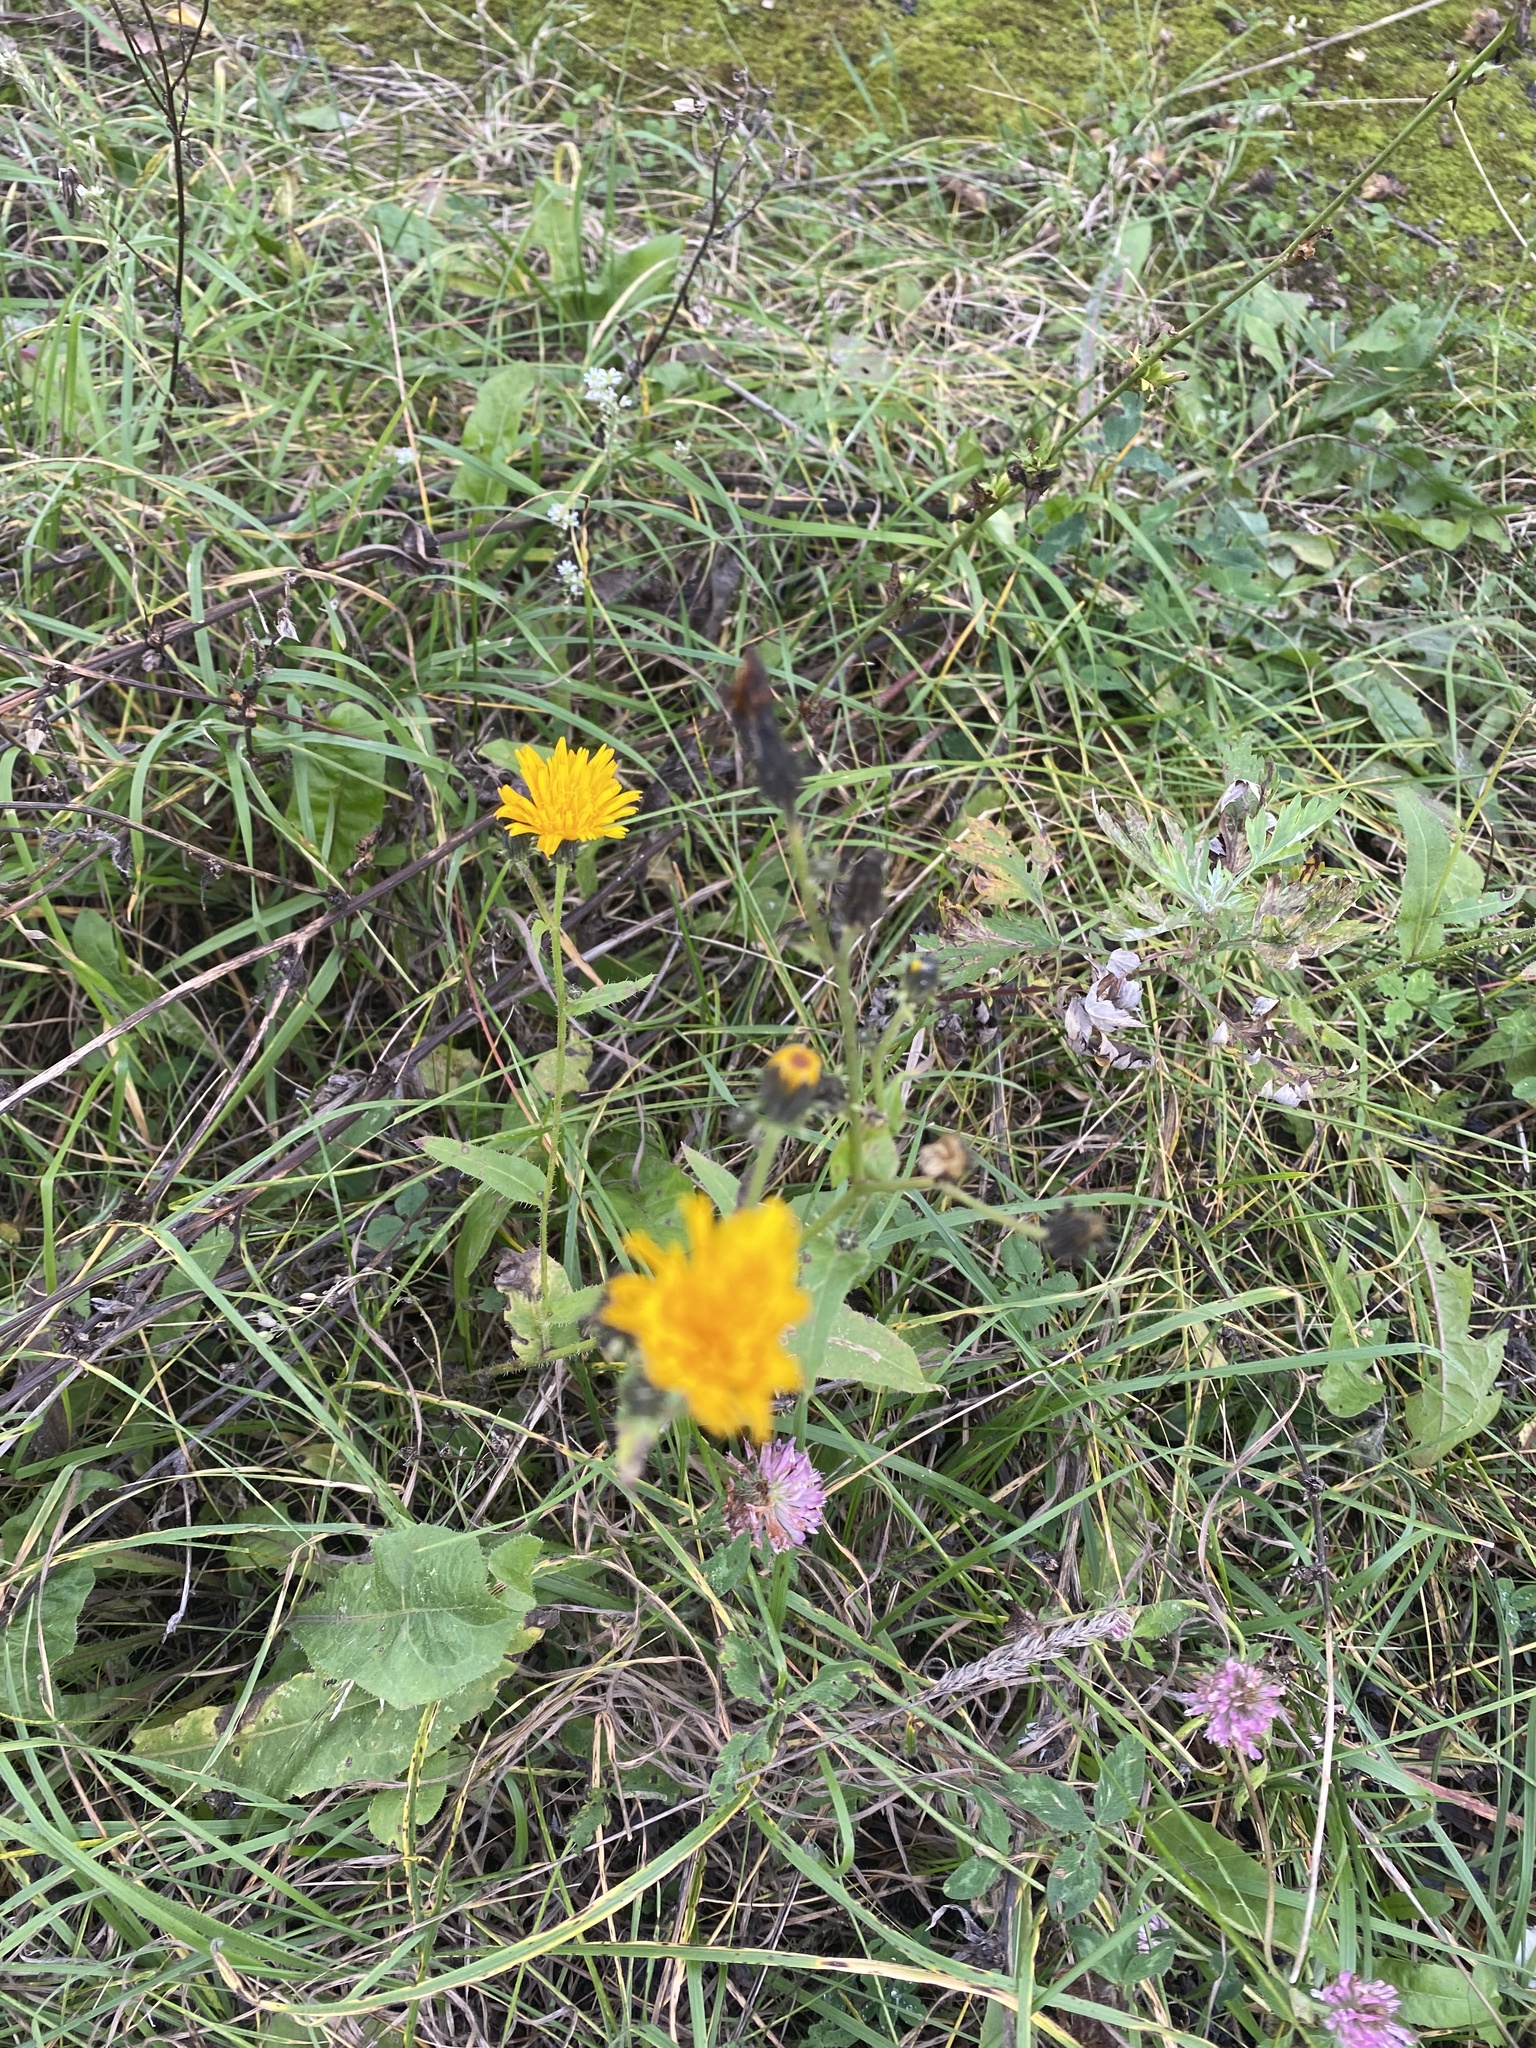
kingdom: Plantae
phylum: Tracheophyta
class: Magnoliopsida
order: Asterales
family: Asteraceae
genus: Picris
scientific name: Picris hieracioides
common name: Hawkweed oxtongue
